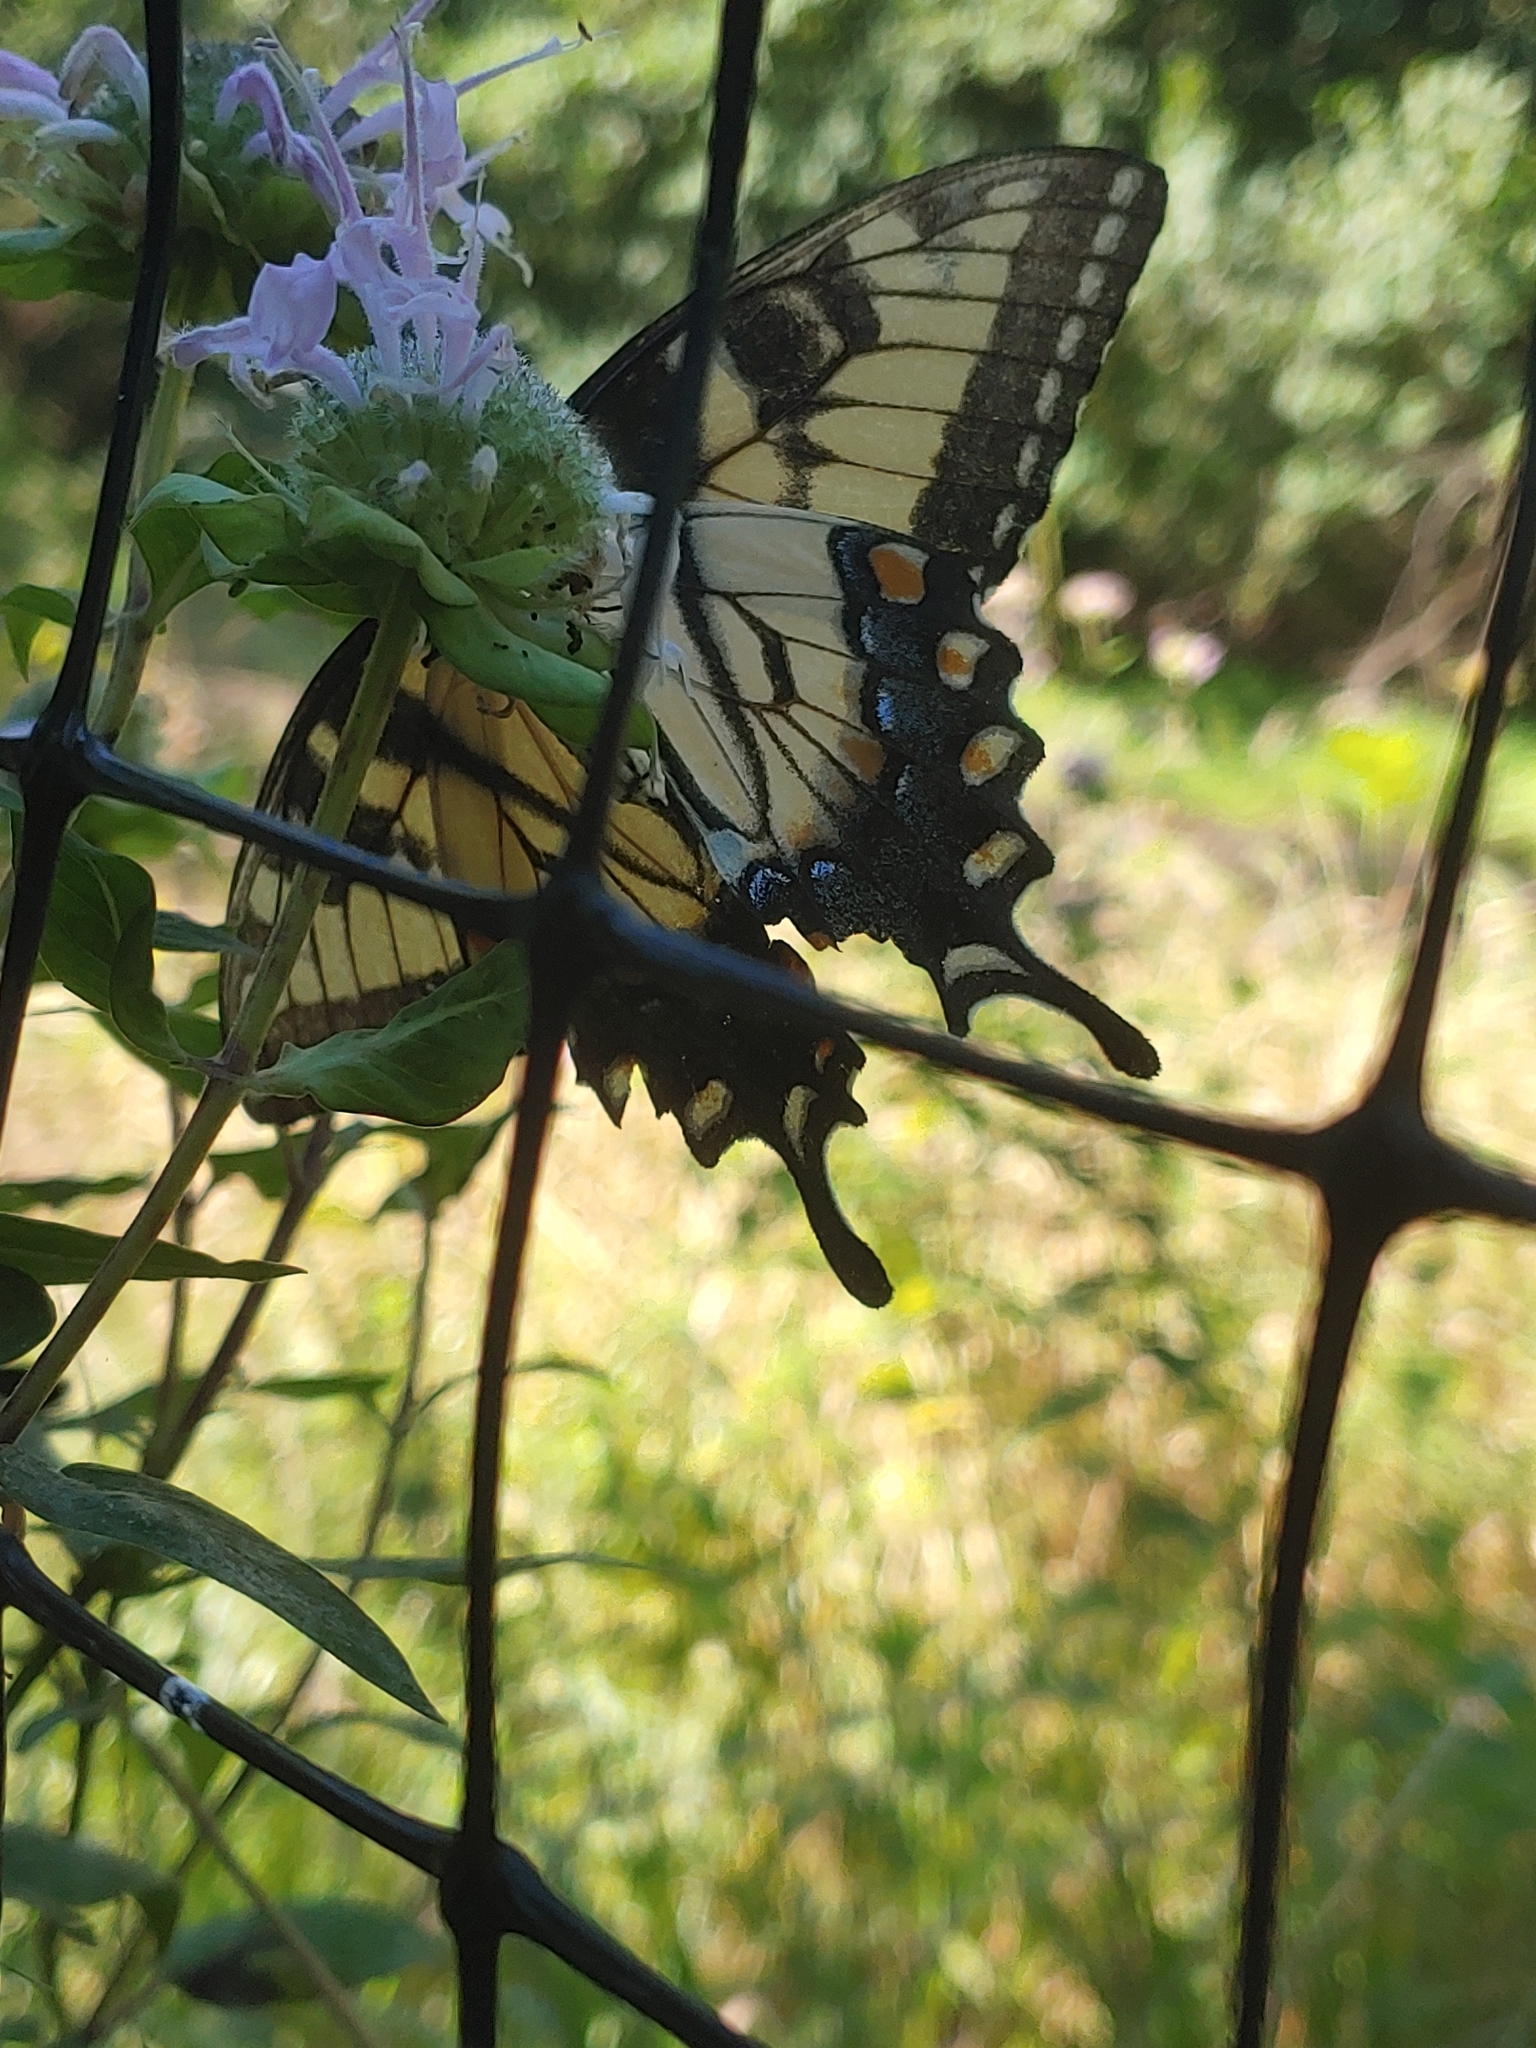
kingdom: Animalia
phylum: Arthropoda
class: Insecta
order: Lepidoptera
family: Papilionidae
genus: Papilio
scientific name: Papilio glaucus
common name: Tiger swallowtail
